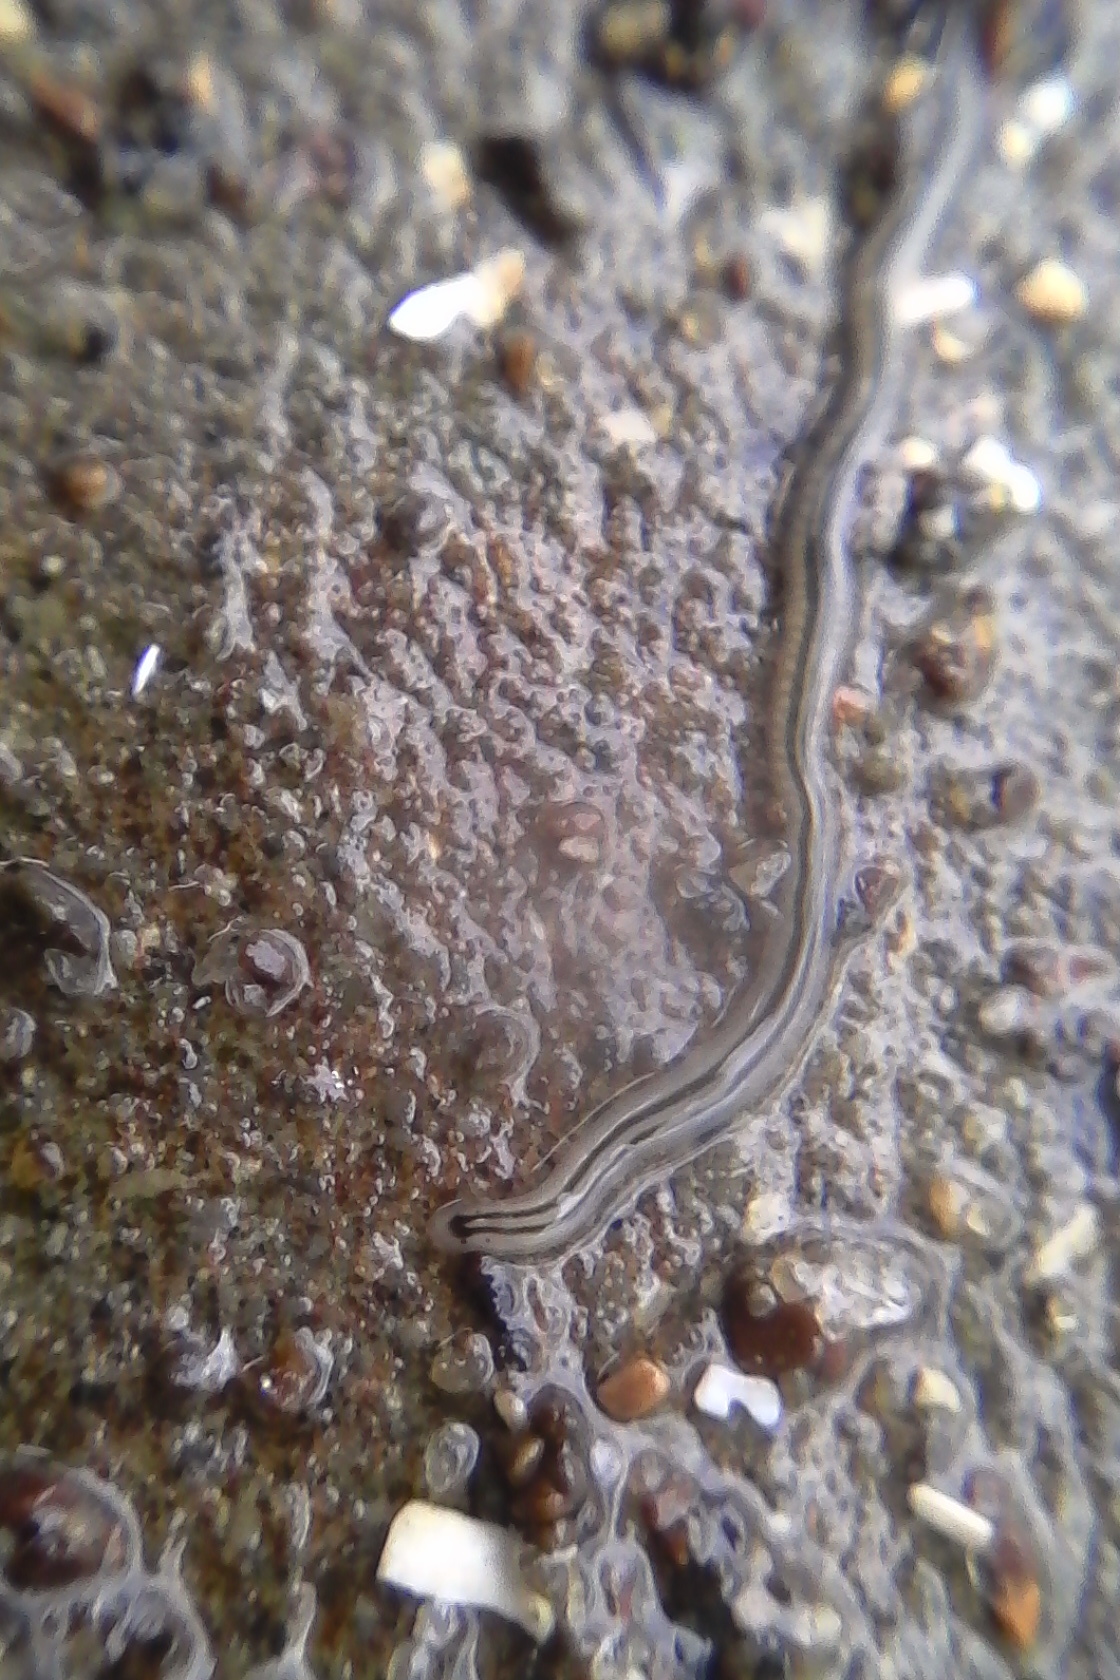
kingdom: Animalia
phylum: Nemertea
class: Hoplonemertea
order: Monostilifera
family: Emplectonematidae
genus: Nemertopsis
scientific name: Nemertopsis bivittata
